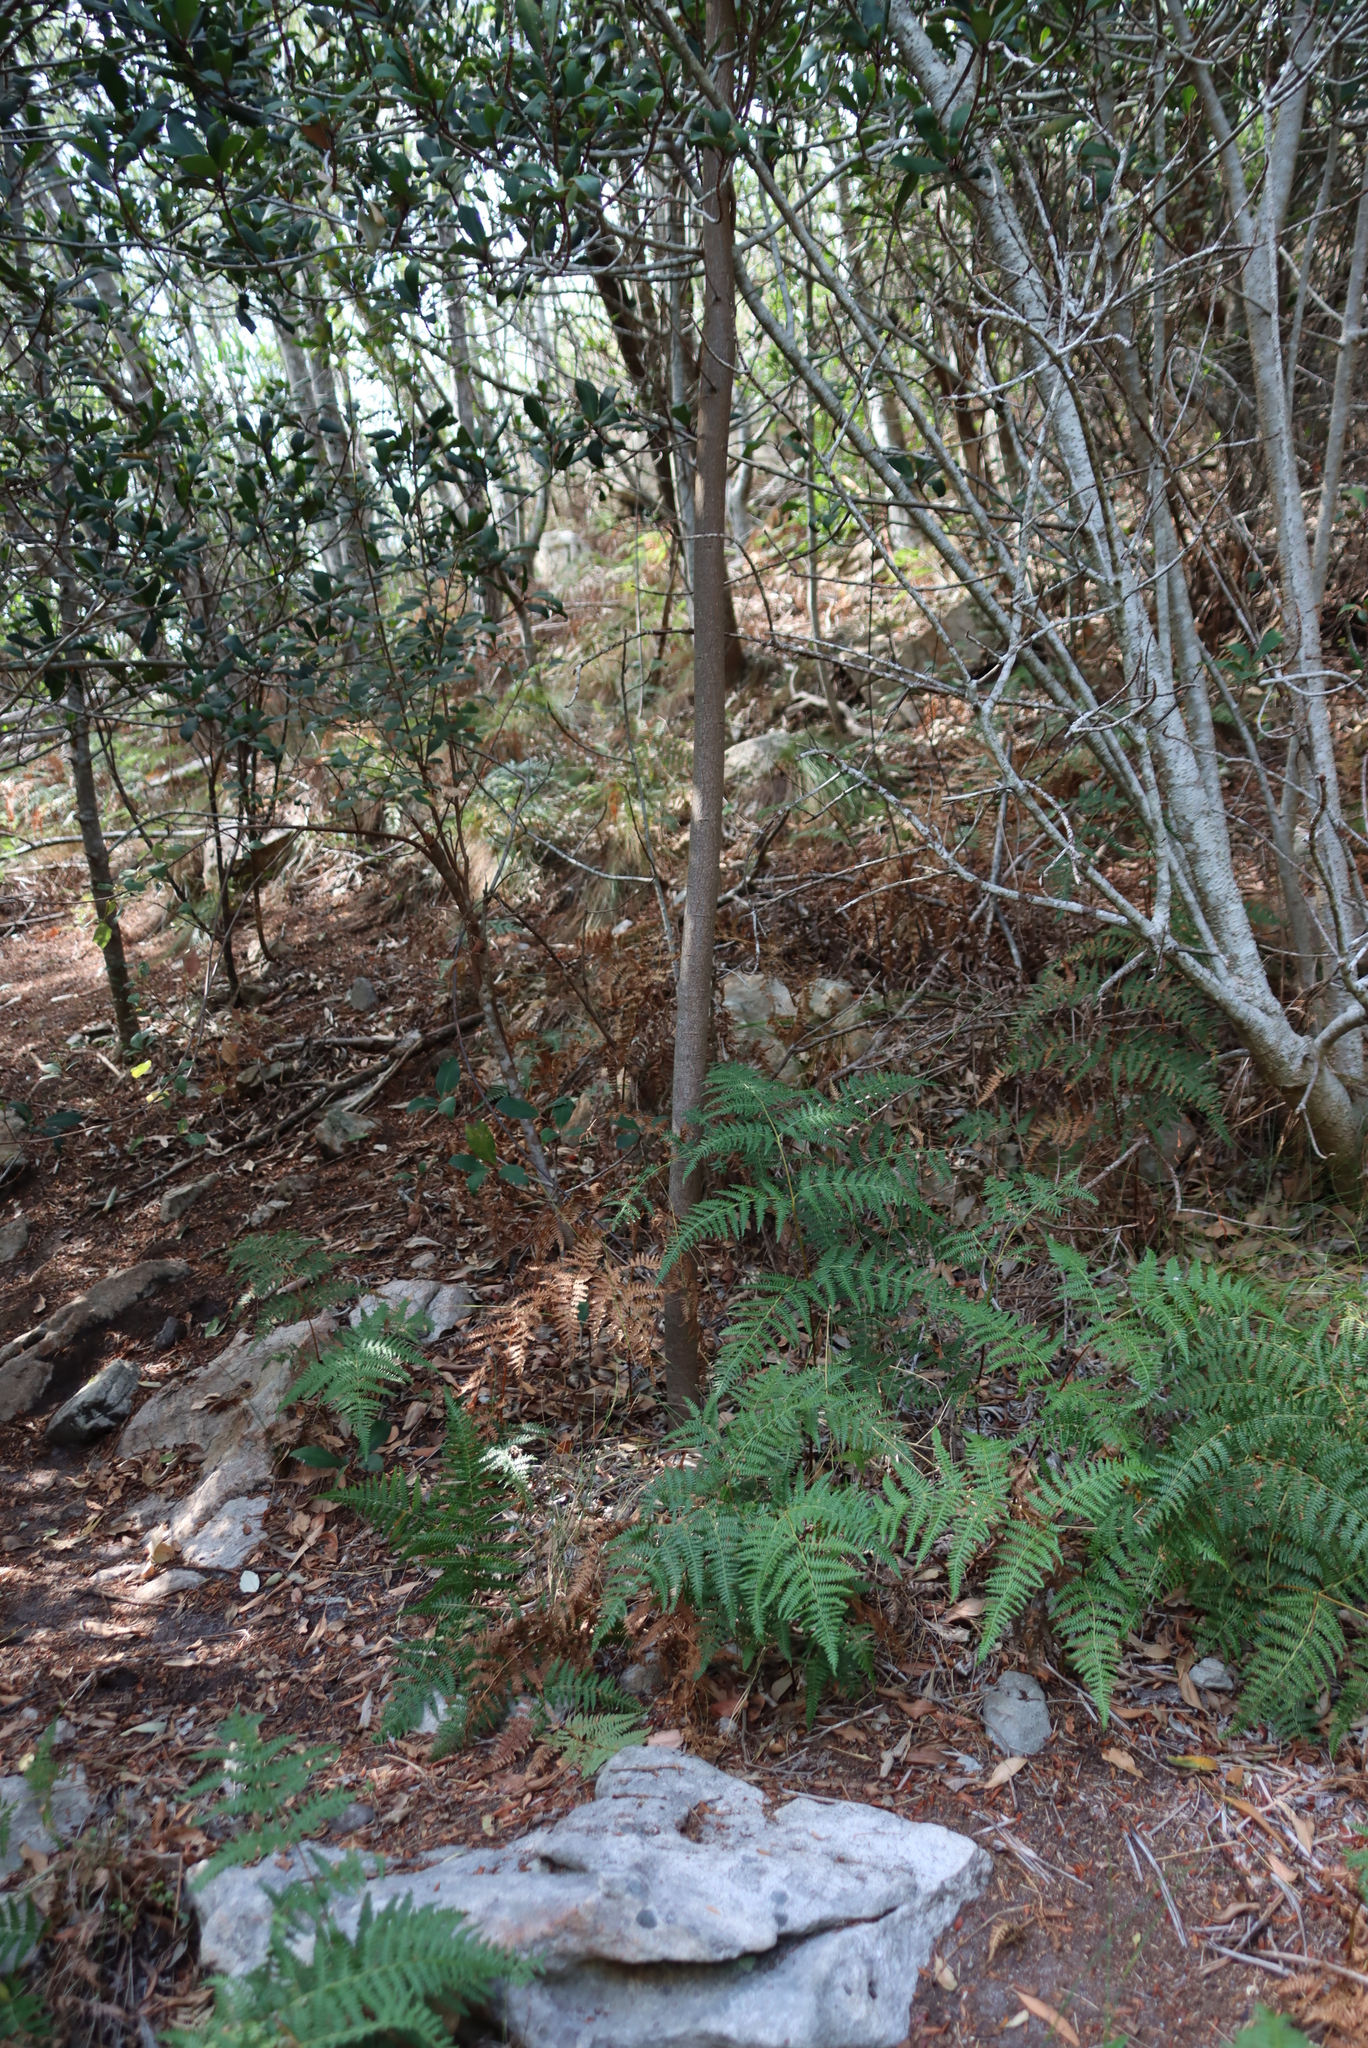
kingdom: Plantae
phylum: Tracheophyta
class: Polypodiopsida
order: Polypodiales
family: Dennstaedtiaceae
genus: Pteridium
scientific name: Pteridium aquilinum
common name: Bracken
